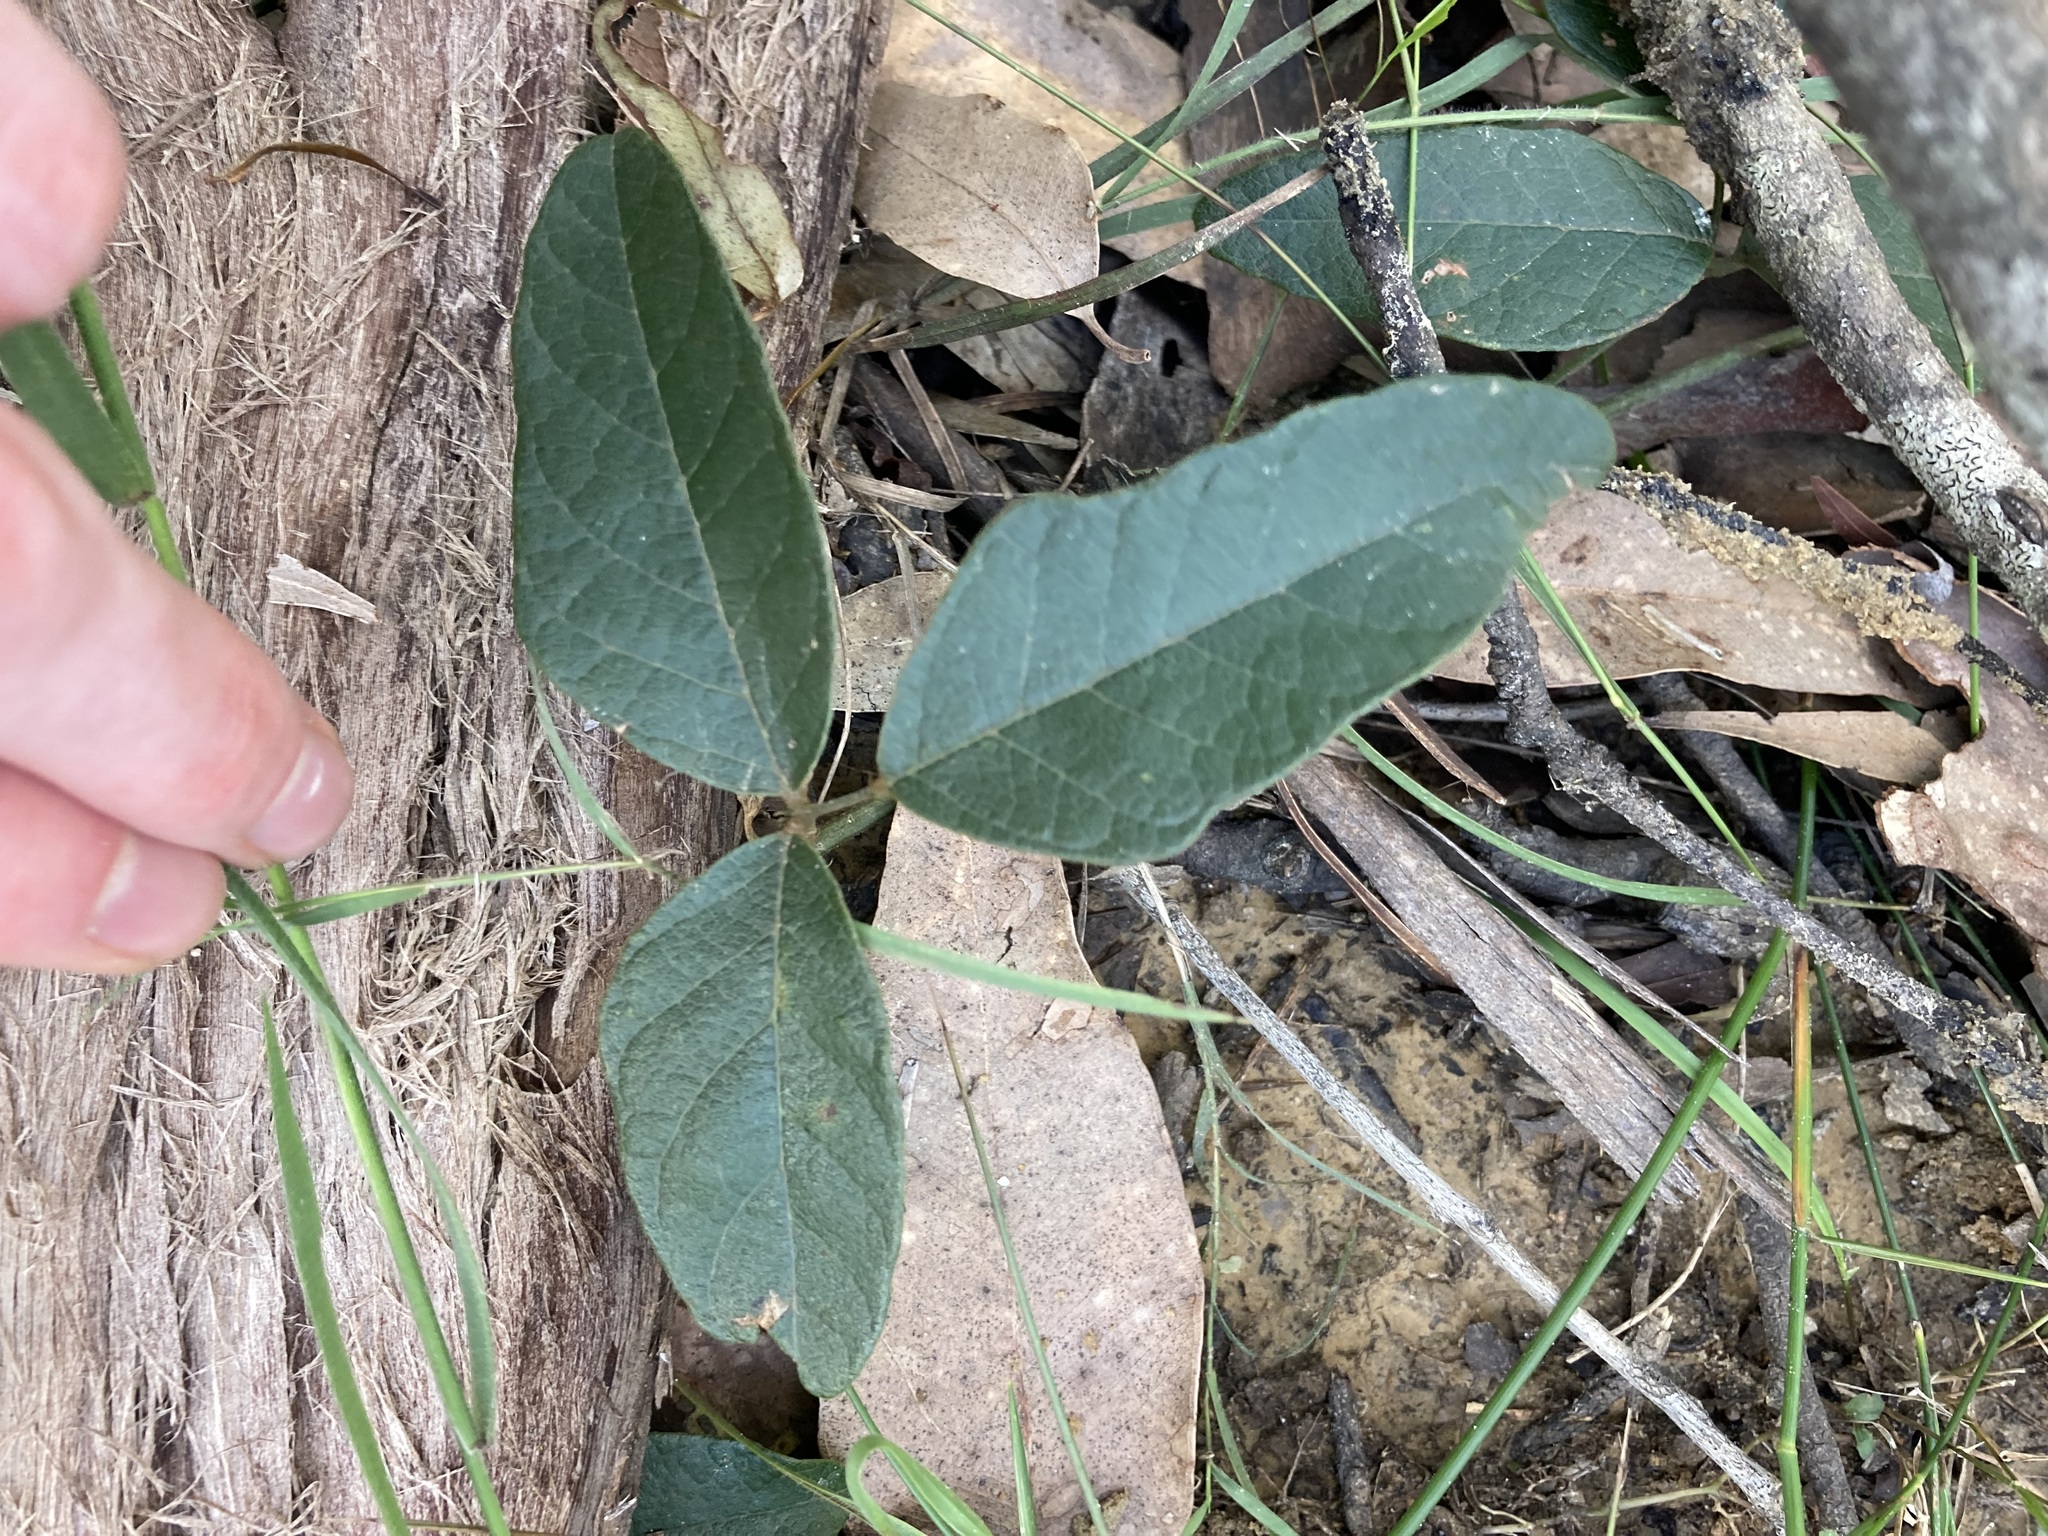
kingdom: Plantae
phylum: Tracheophyta
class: Magnoliopsida
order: Fabales
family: Fabaceae
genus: Kennedia
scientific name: Kennedia rubicunda
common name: Red kennedy-pea
